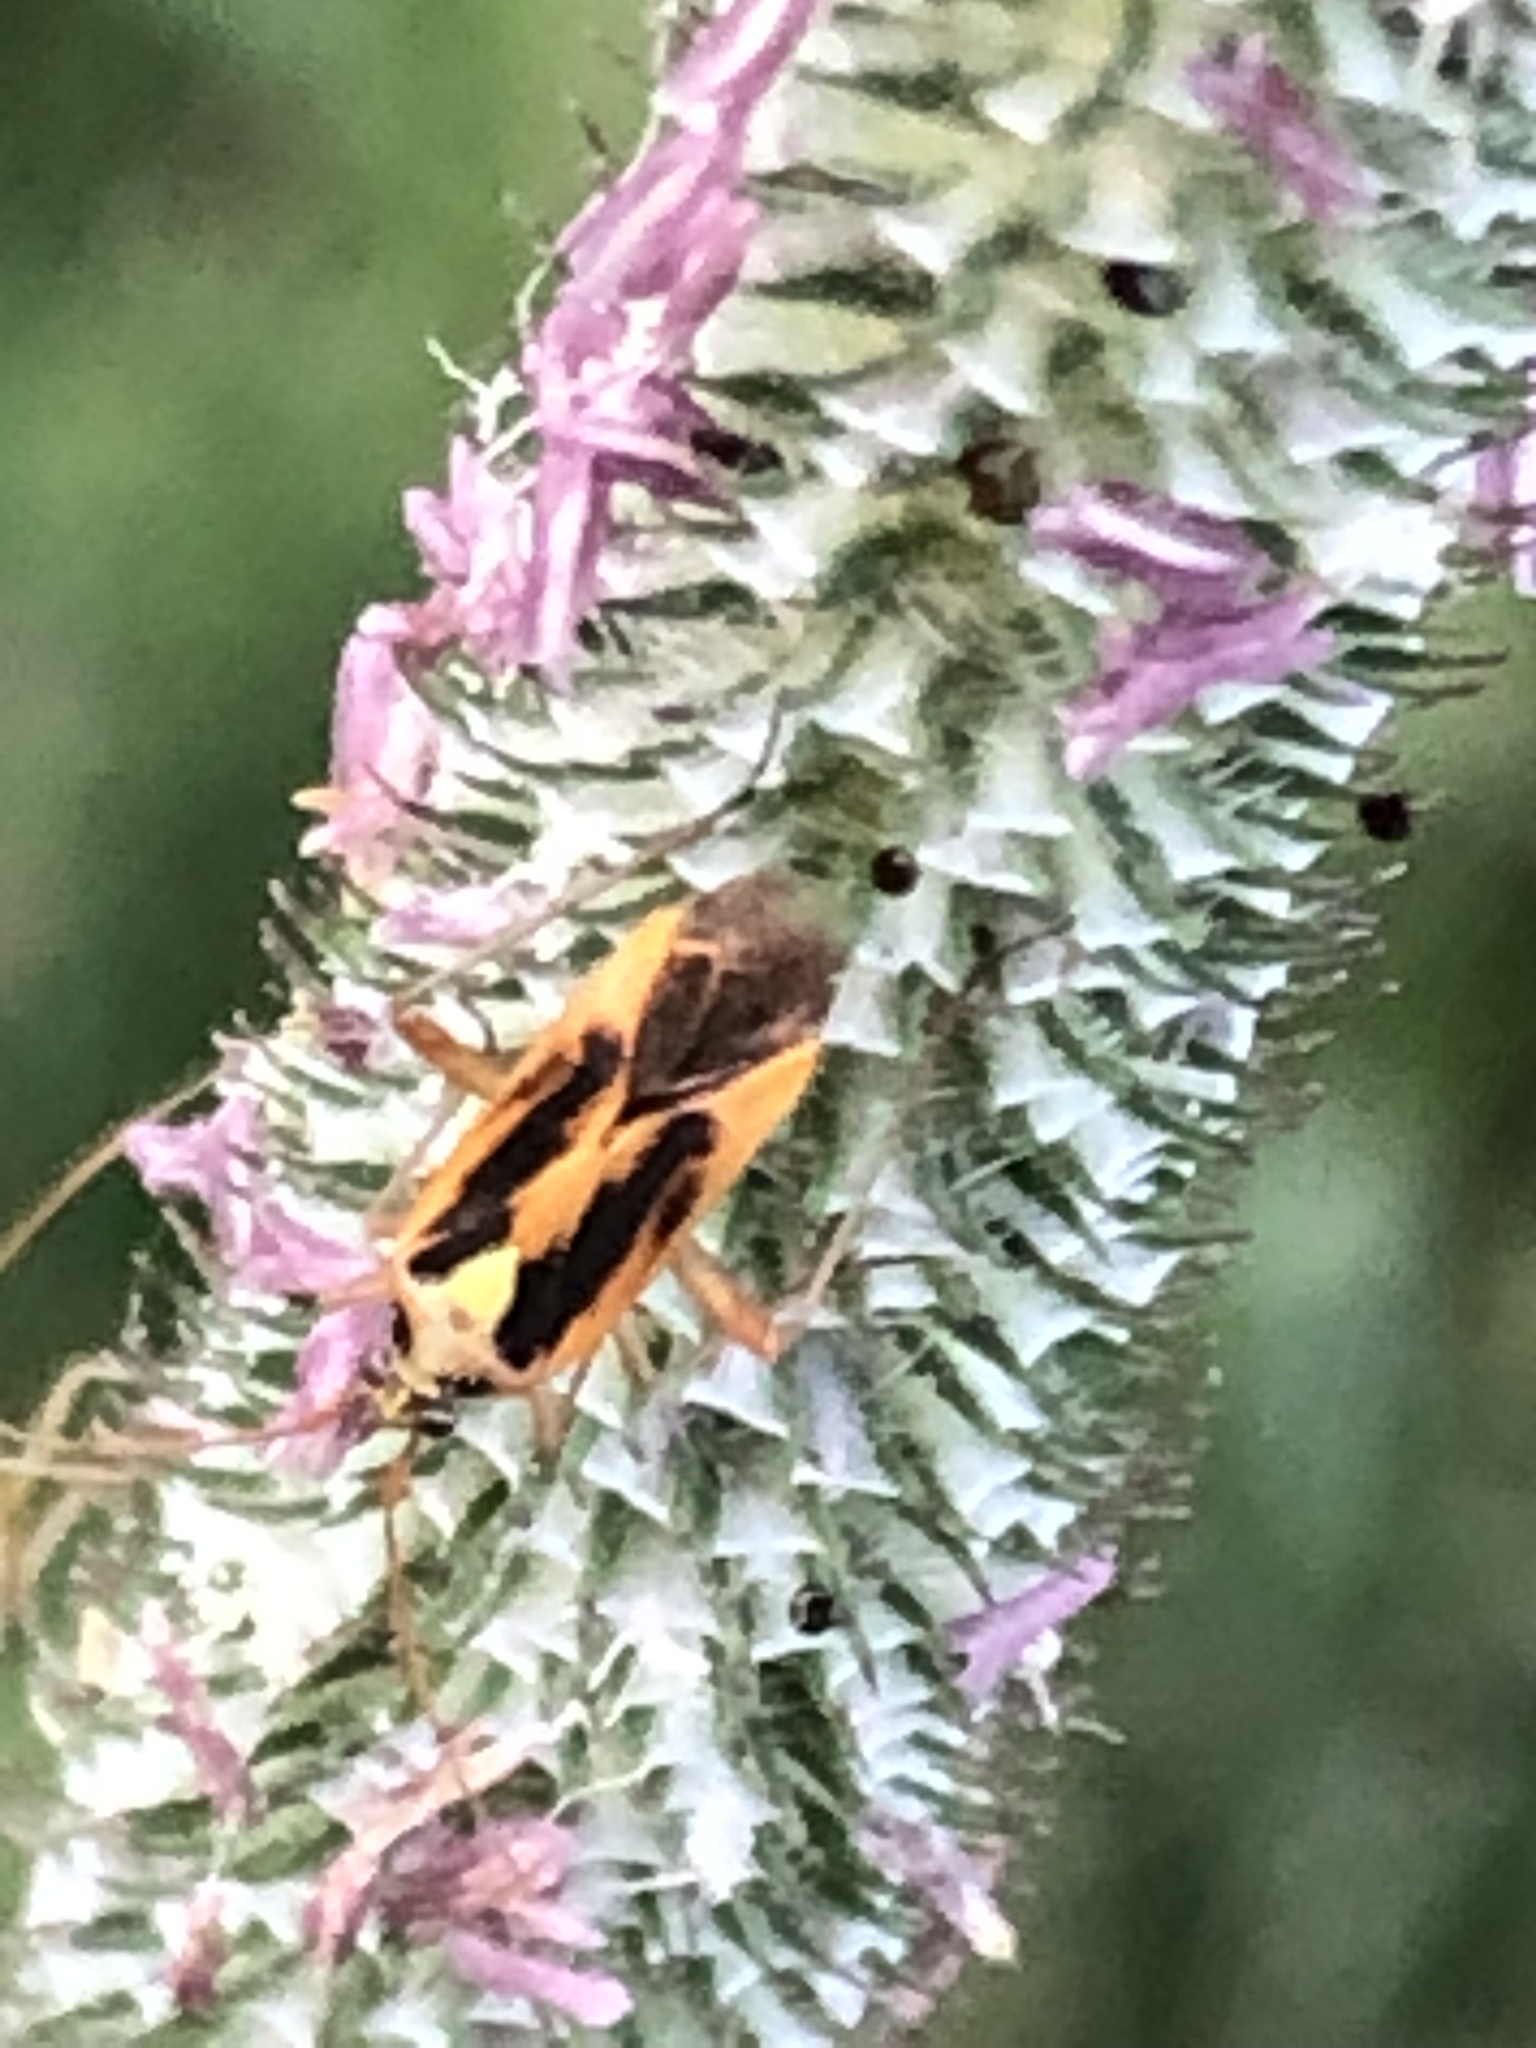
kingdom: Animalia
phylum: Arthropoda
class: Insecta
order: Hemiptera
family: Miridae
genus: Stenotus
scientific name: Stenotus binotatus
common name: Plant bug
